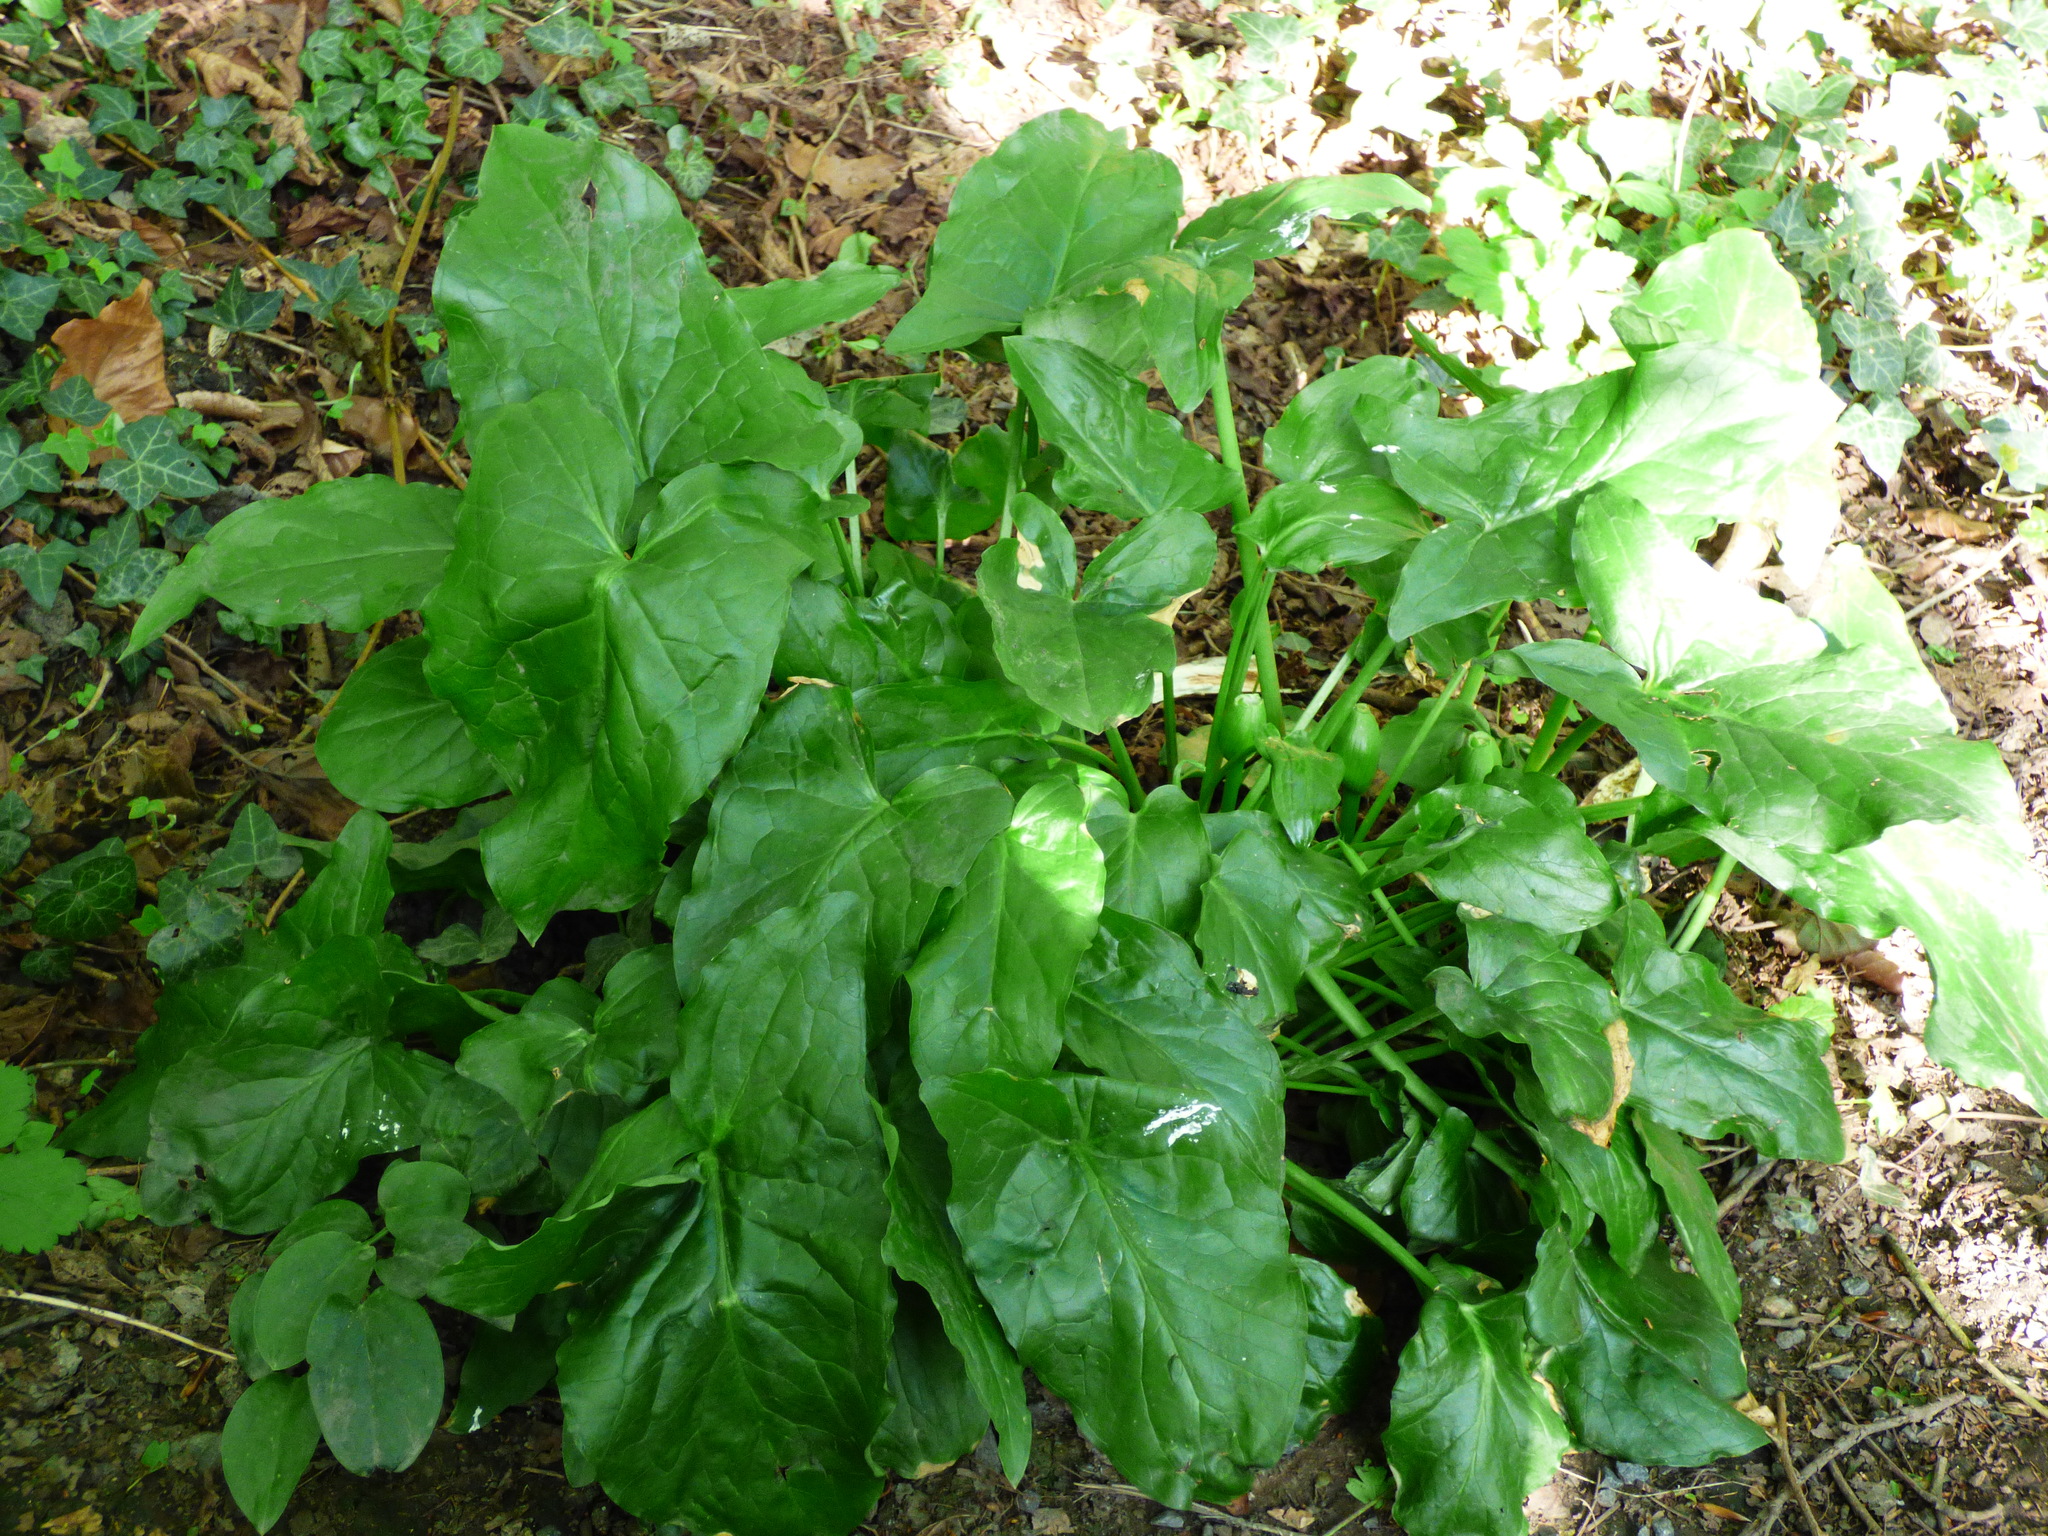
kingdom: Plantae
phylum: Tracheophyta
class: Liliopsida
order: Alismatales
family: Araceae
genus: Arum
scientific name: Arum maculatum
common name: Lords-and-ladies
